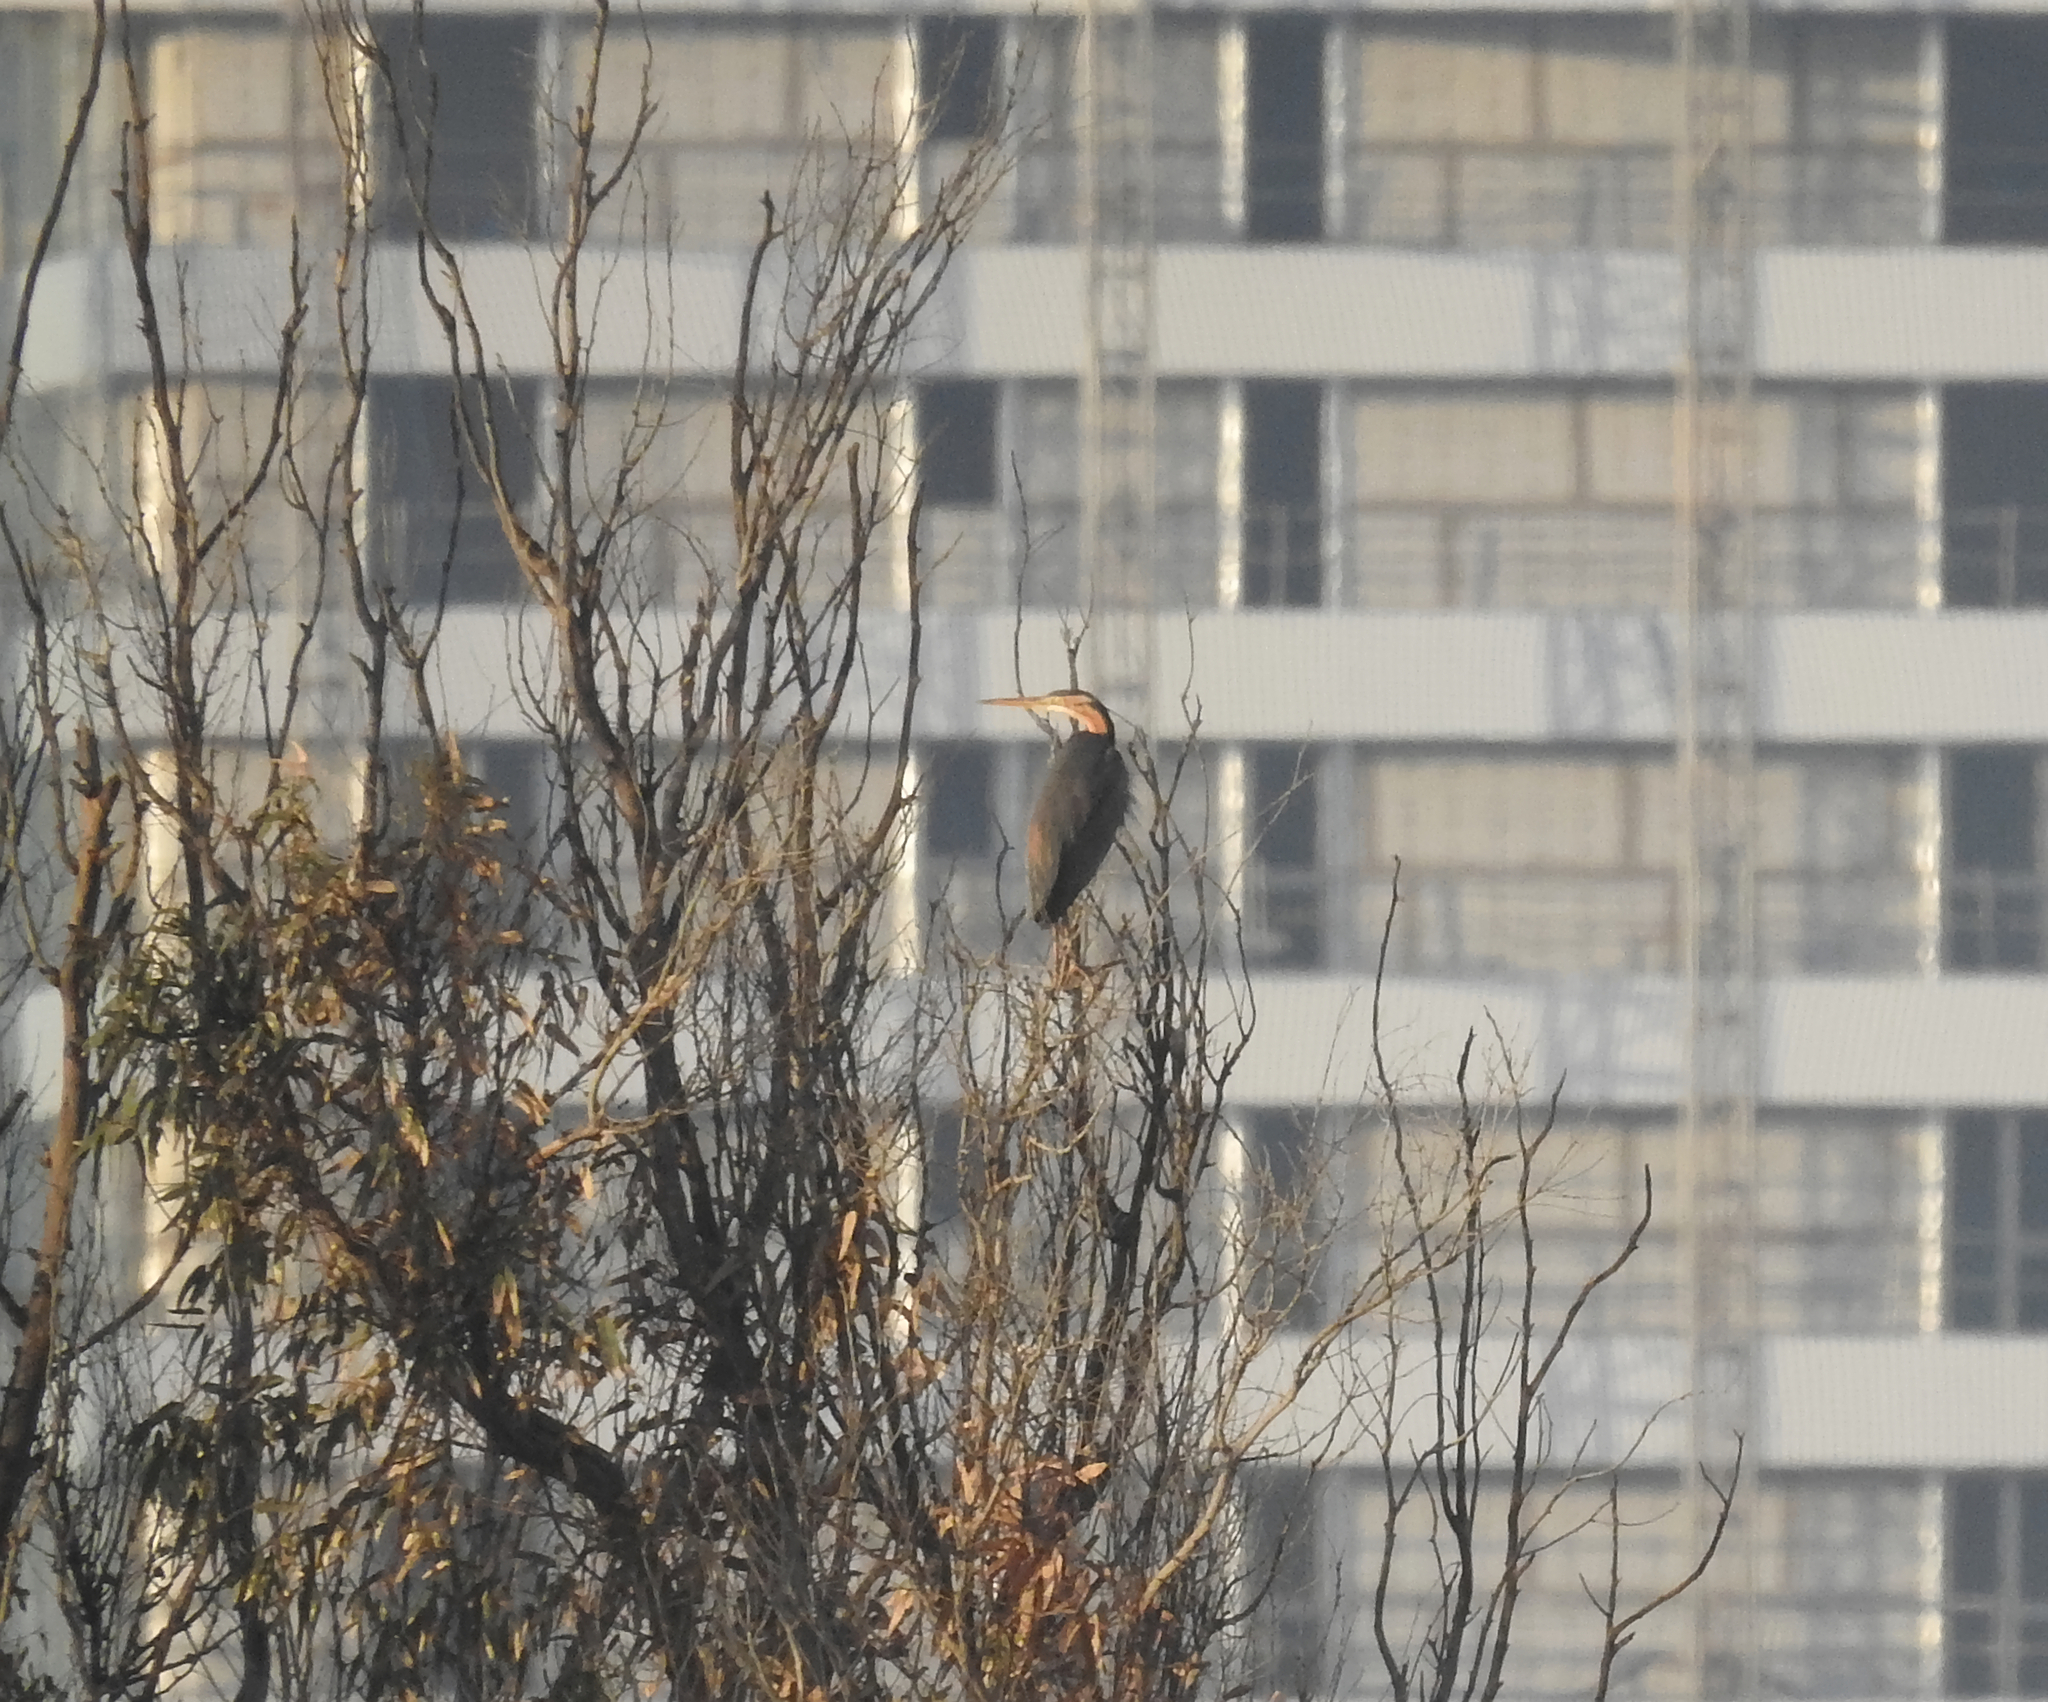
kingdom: Animalia
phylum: Chordata
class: Aves
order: Pelecaniformes
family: Ardeidae
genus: Ardea
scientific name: Ardea purpurea
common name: Purple heron
